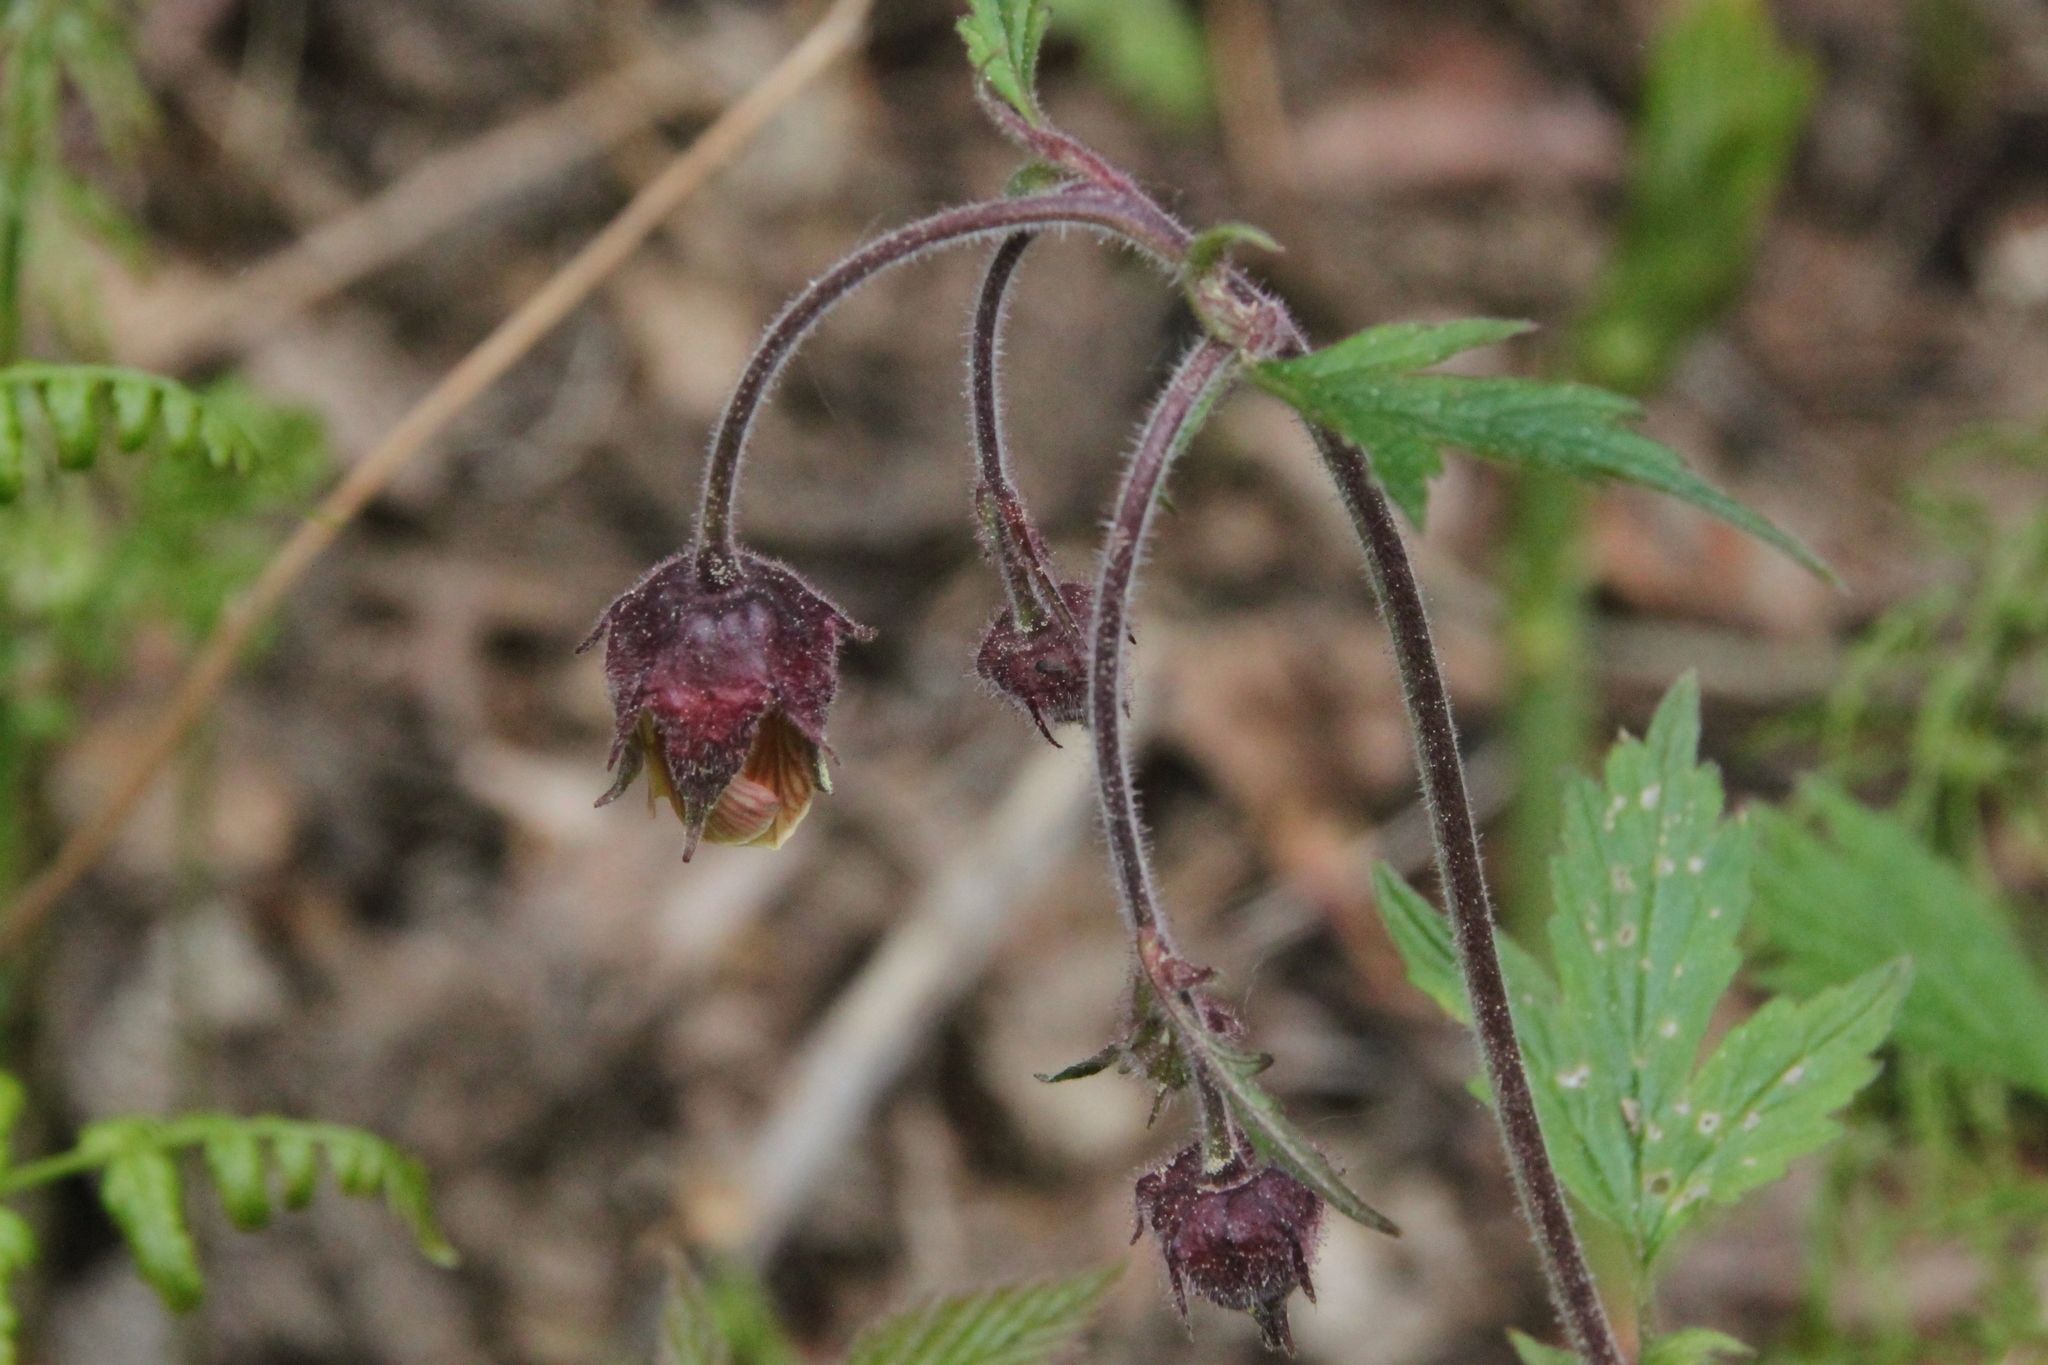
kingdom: Plantae
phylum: Tracheophyta
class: Magnoliopsida
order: Rosales
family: Rosaceae
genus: Geum
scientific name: Geum rivale
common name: Water avens
